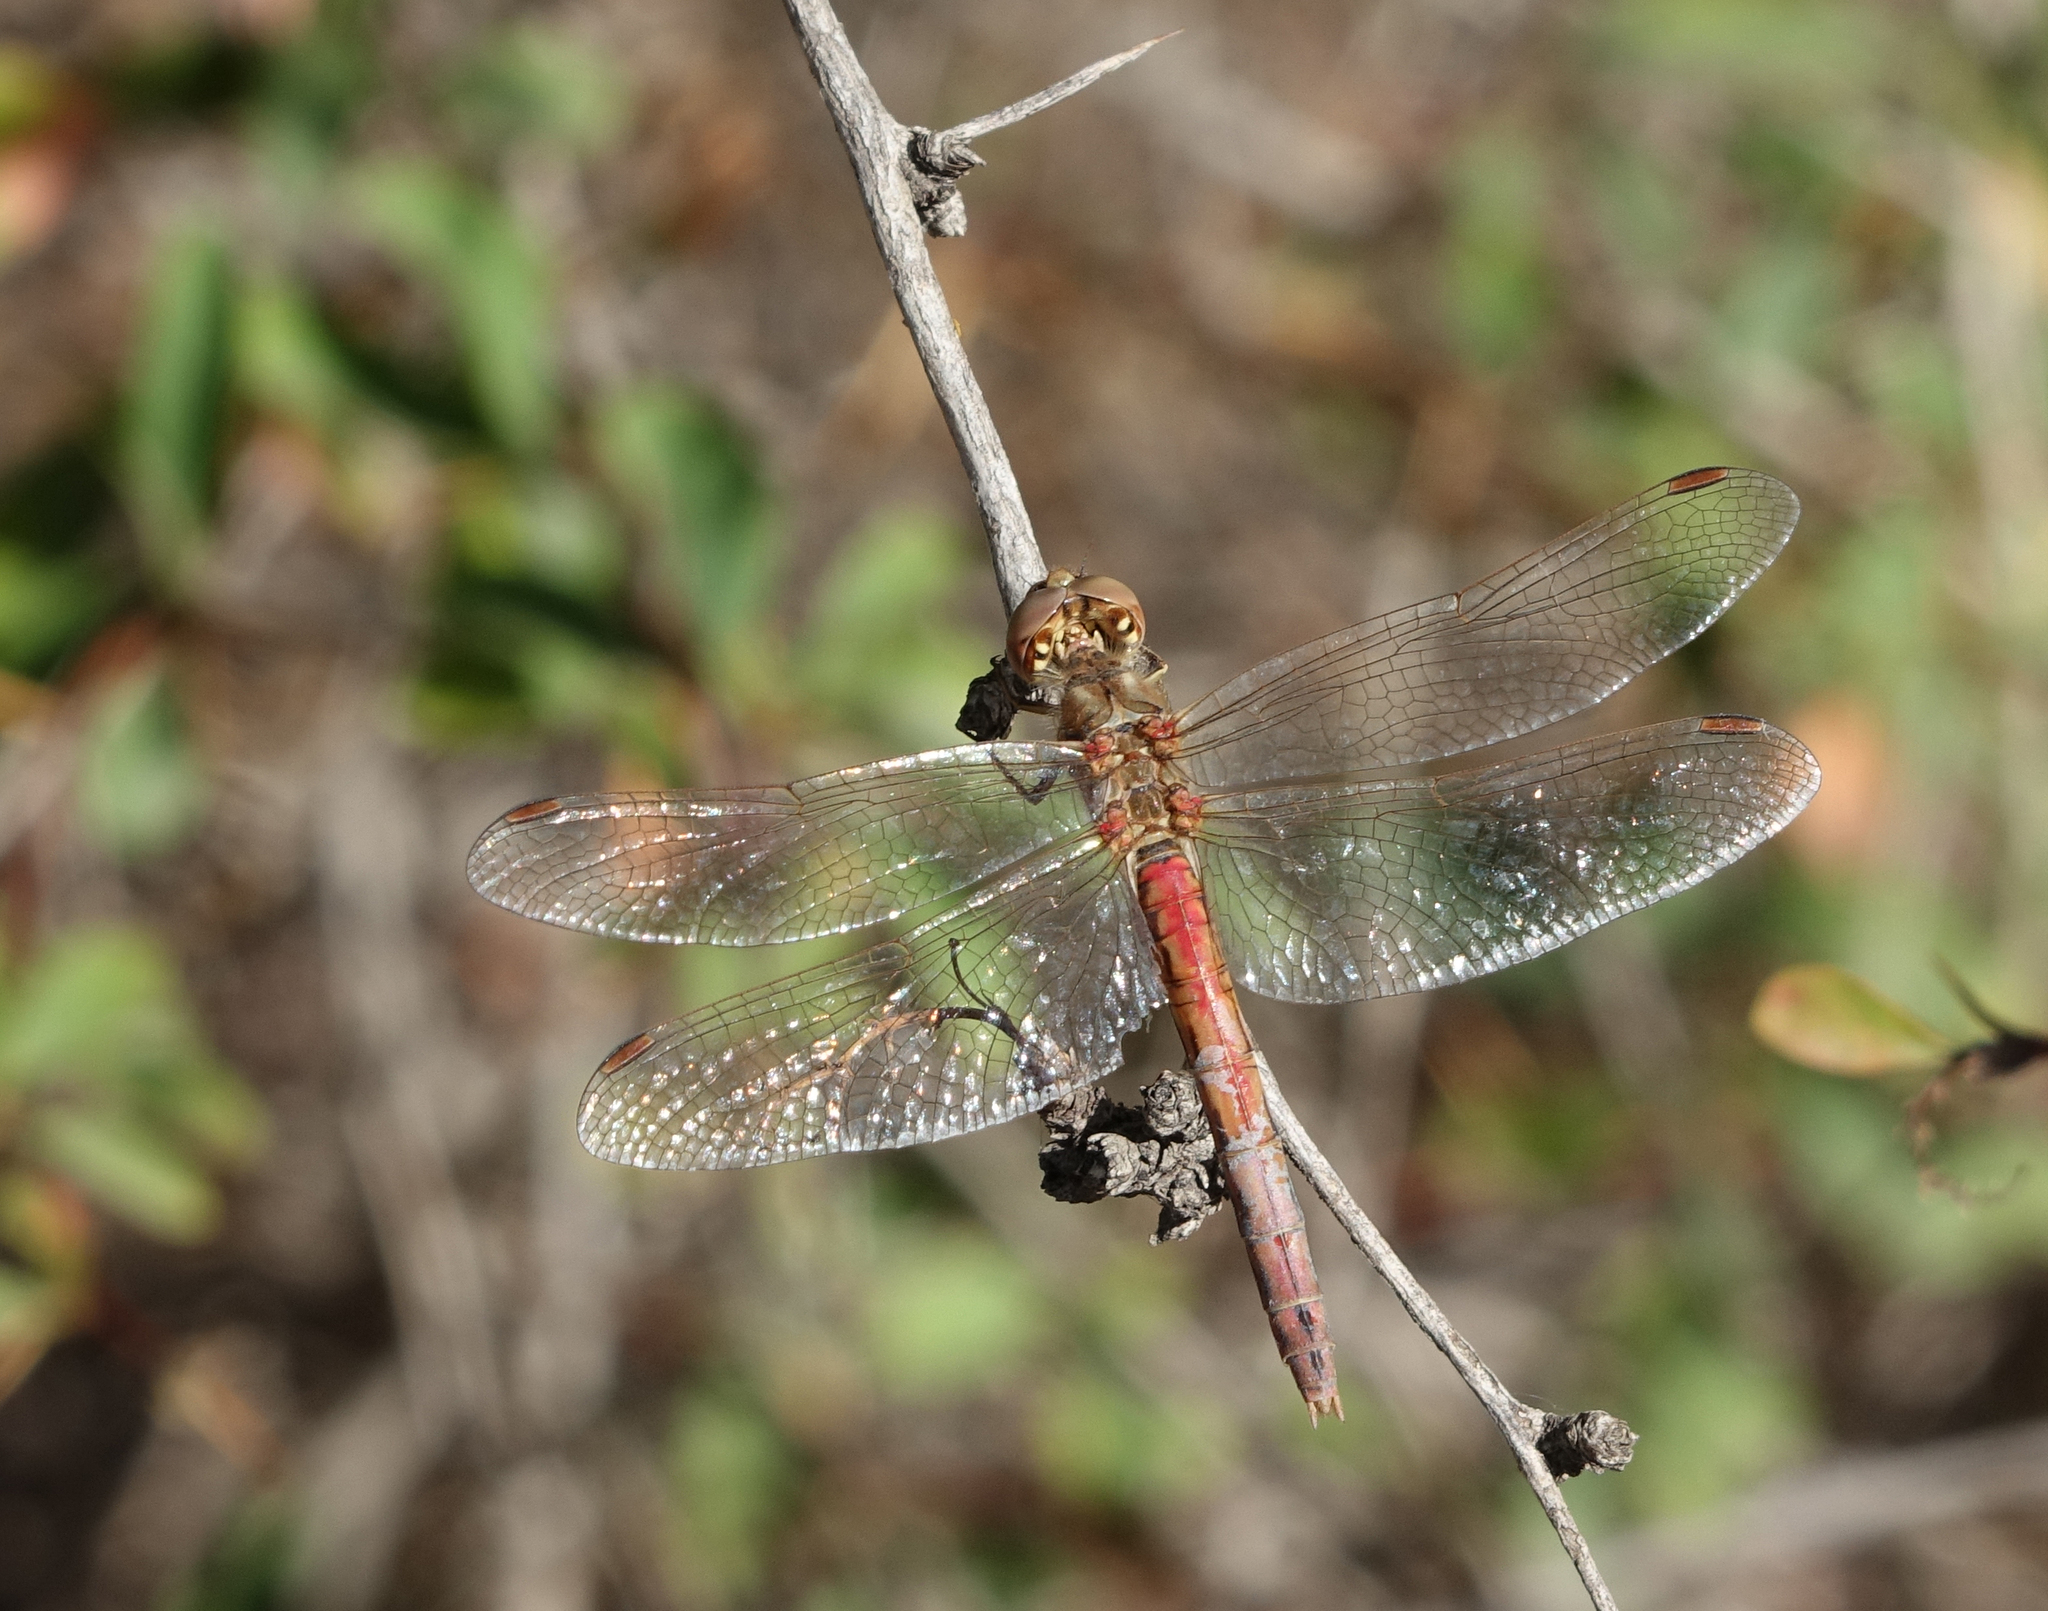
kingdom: Animalia
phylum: Arthropoda
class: Insecta
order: Odonata
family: Libellulidae
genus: Sympetrum
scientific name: Sympetrum vulgatum
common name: Vagrant darter
